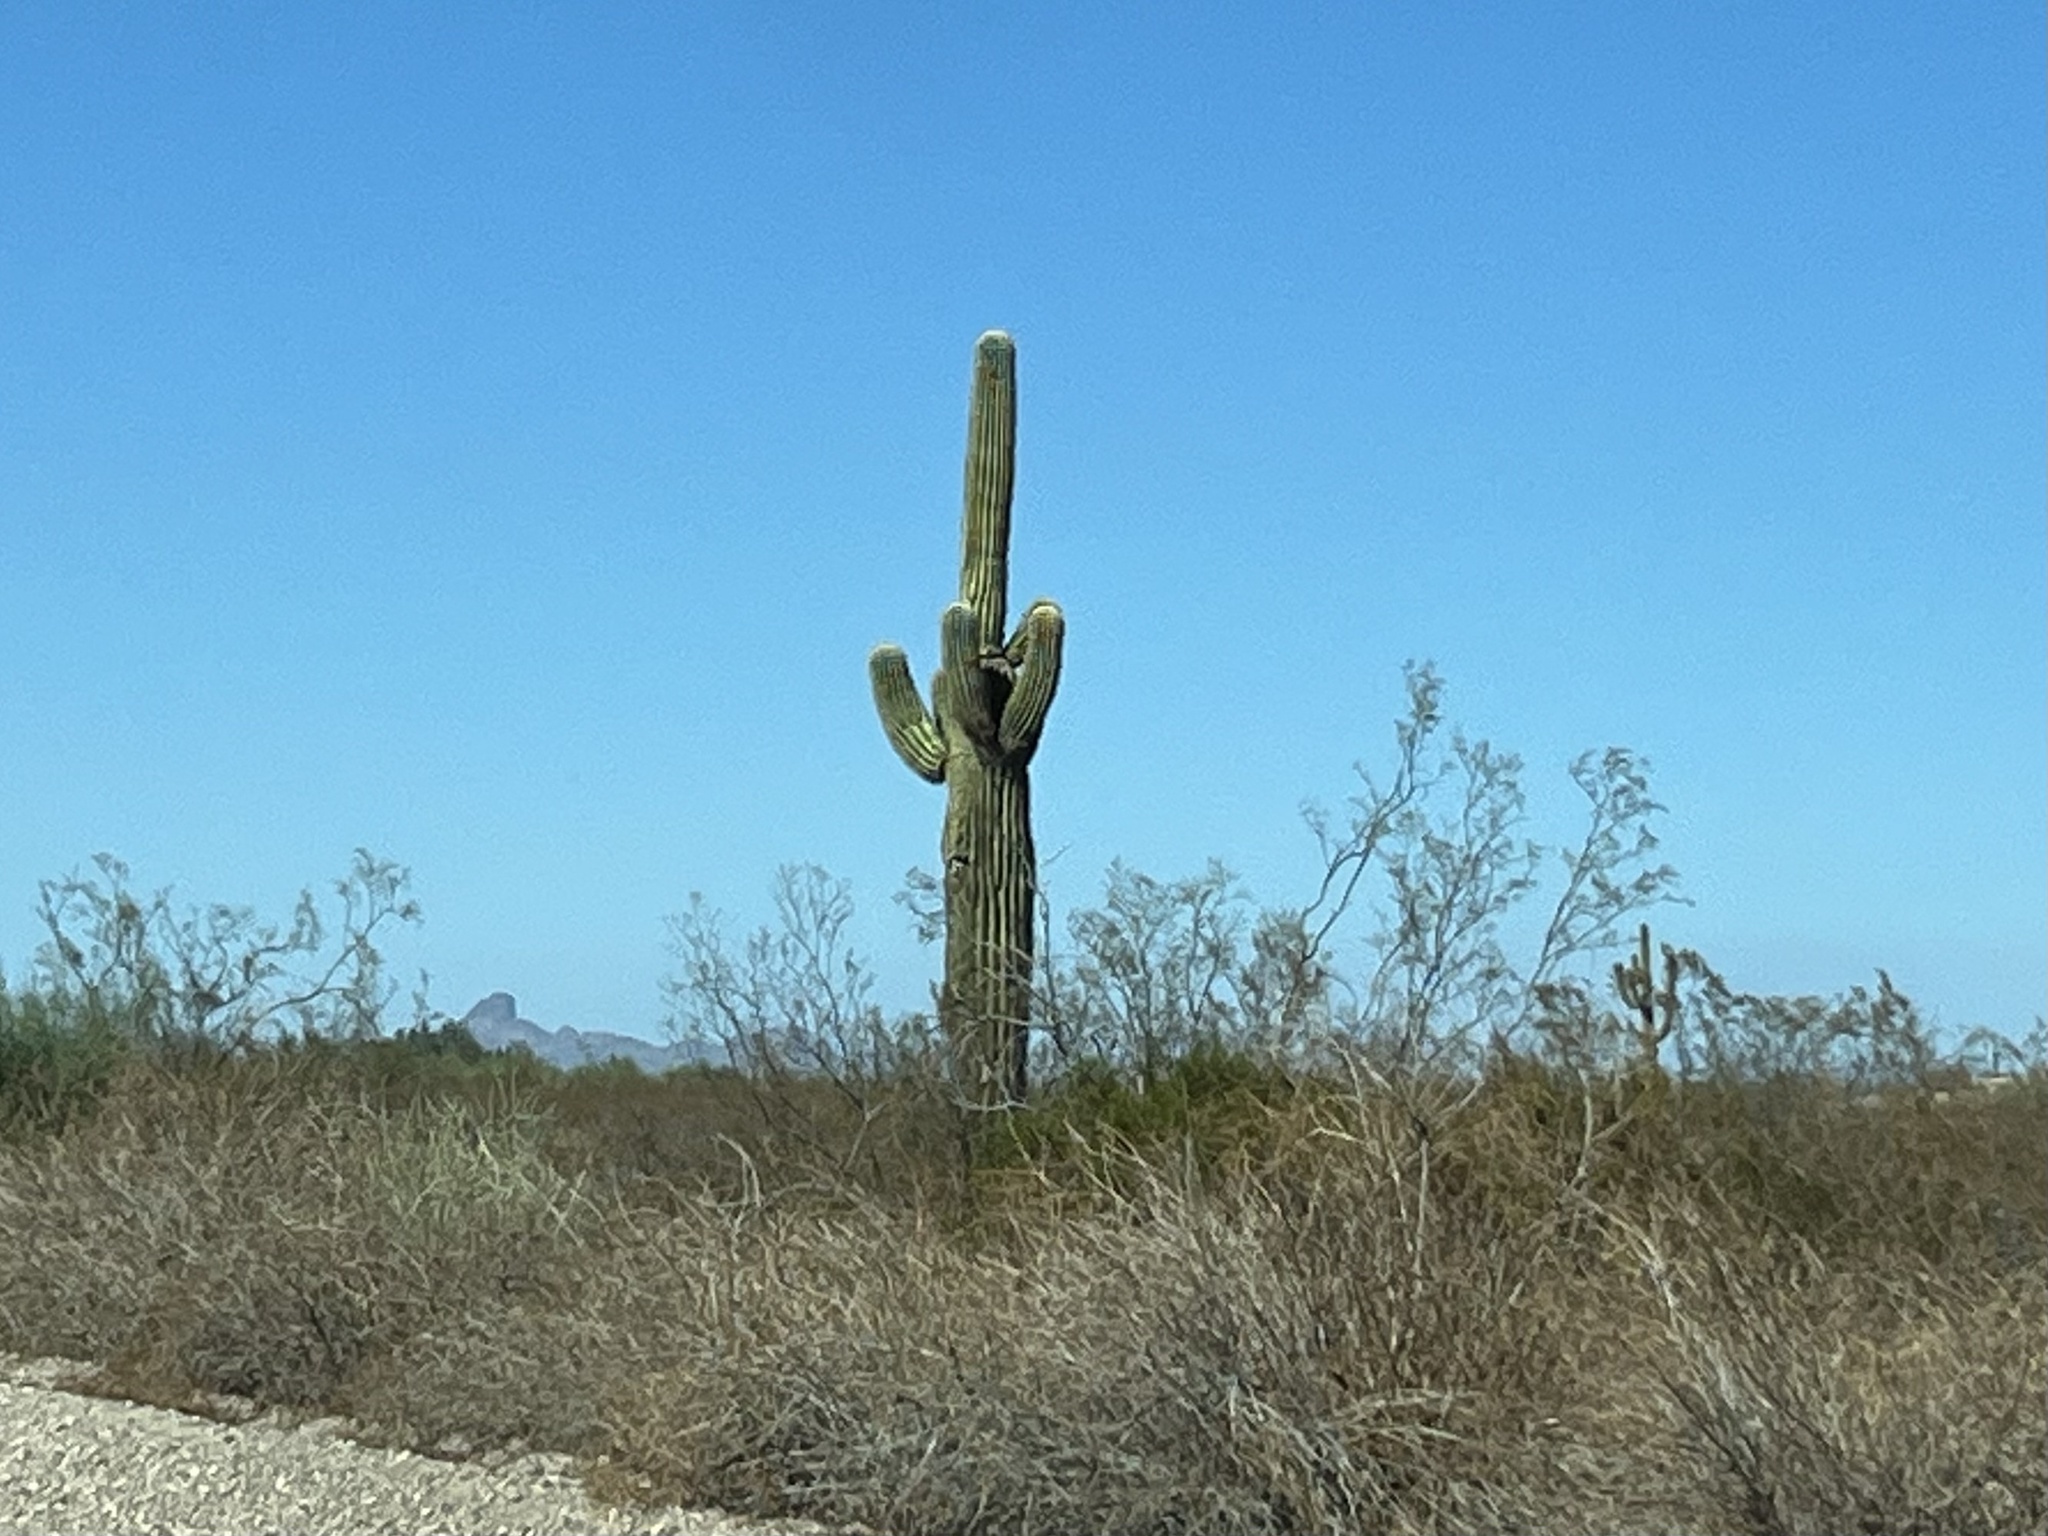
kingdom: Plantae
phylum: Tracheophyta
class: Magnoliopsida
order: Caryophyllales
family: Cactaceae
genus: Carnegiea
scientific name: Carnegiea gigantea
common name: Saguaro
